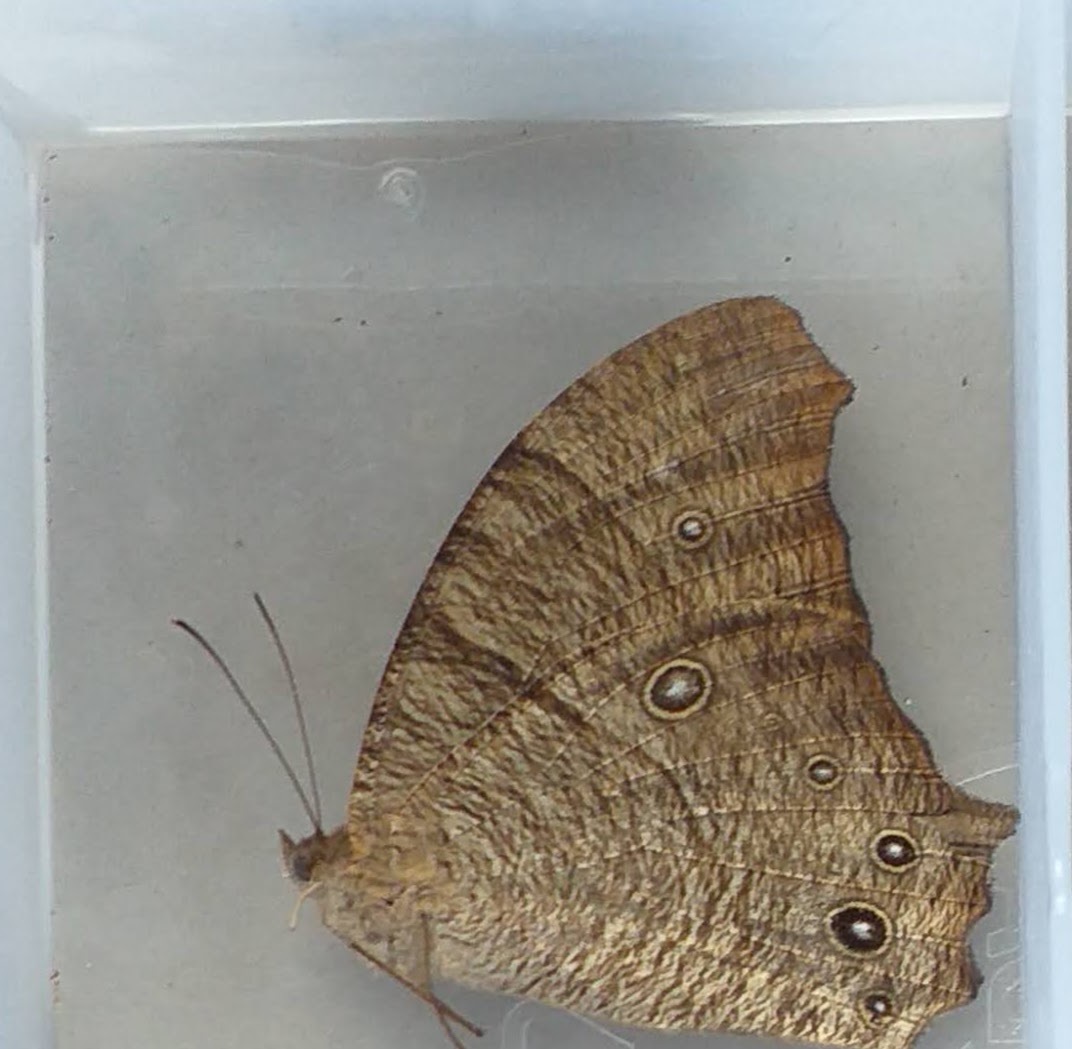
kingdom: Animalia
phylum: Arthropoda
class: Insecta
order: Lepidoptera
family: Nymphalidae
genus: Melanitis
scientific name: Melanitis leda
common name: Twilight brown
